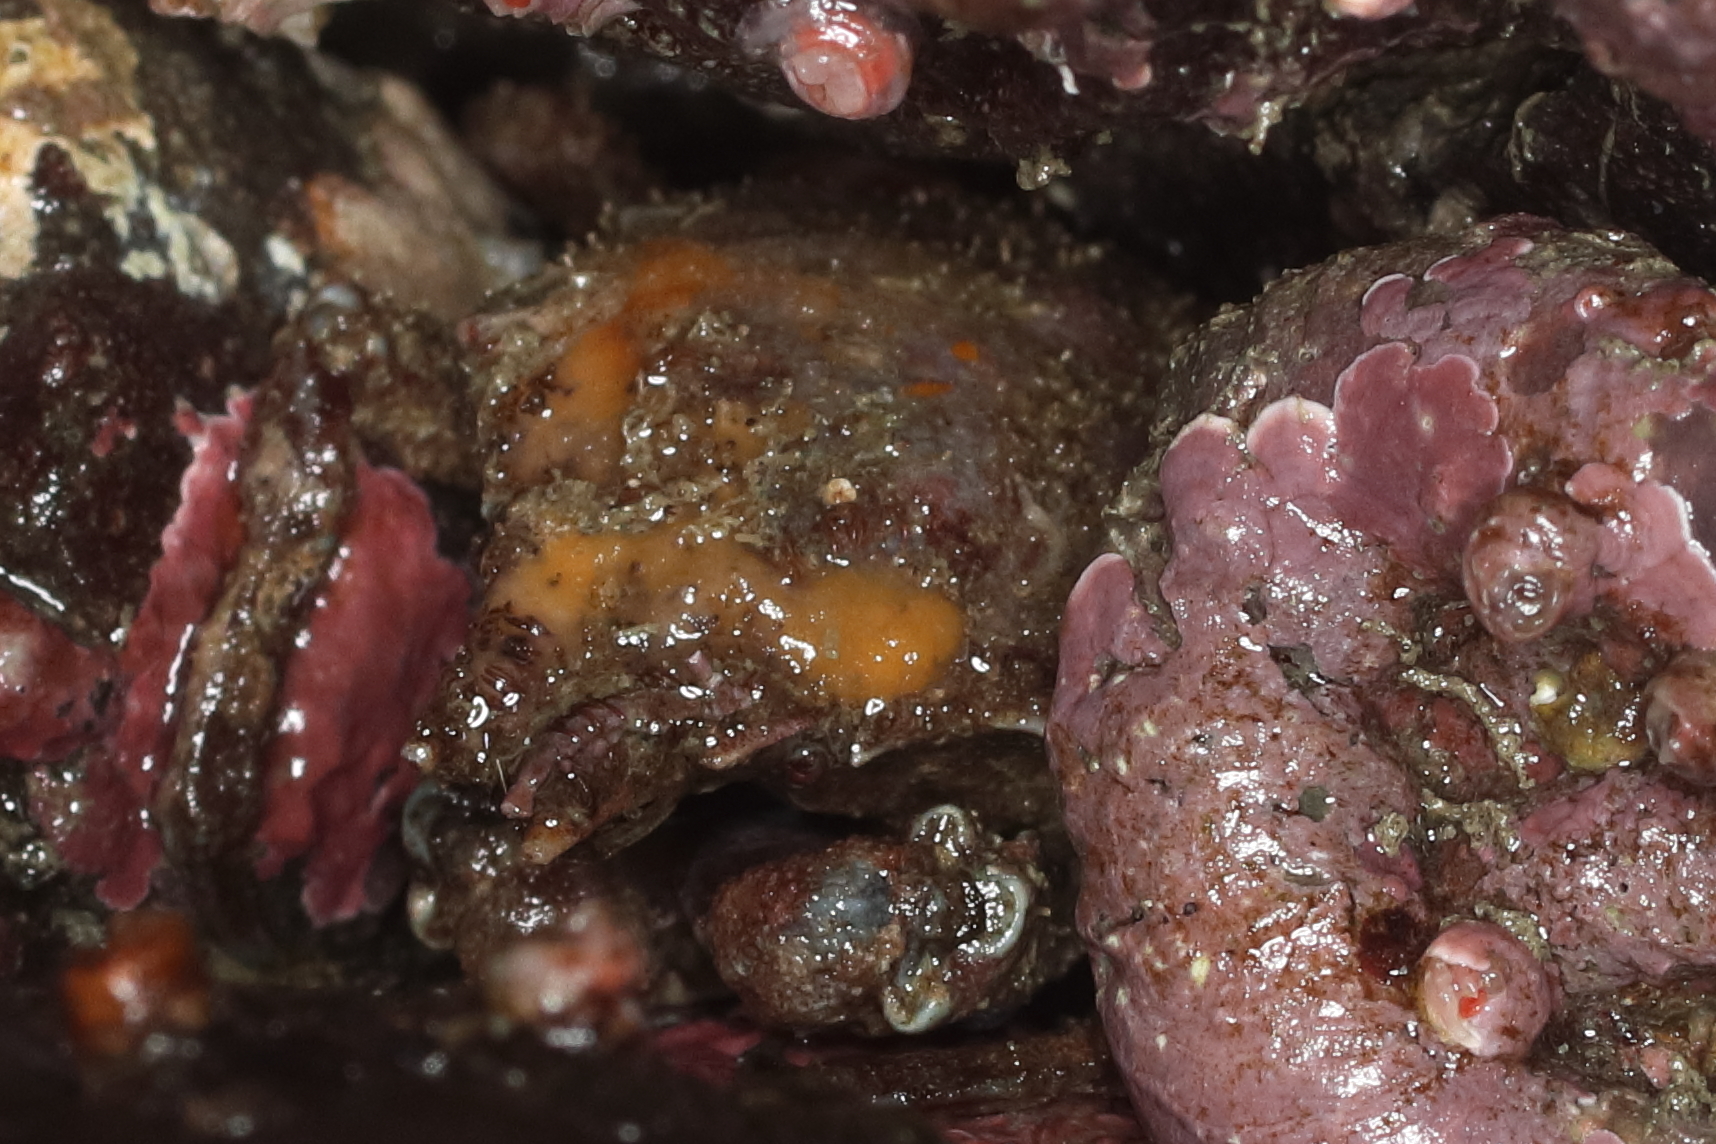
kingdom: Animalia
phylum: Arthropoda
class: Malacostraca
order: Decapoda
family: Epialtidae
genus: Pugettia
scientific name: Pugettia gracilis
